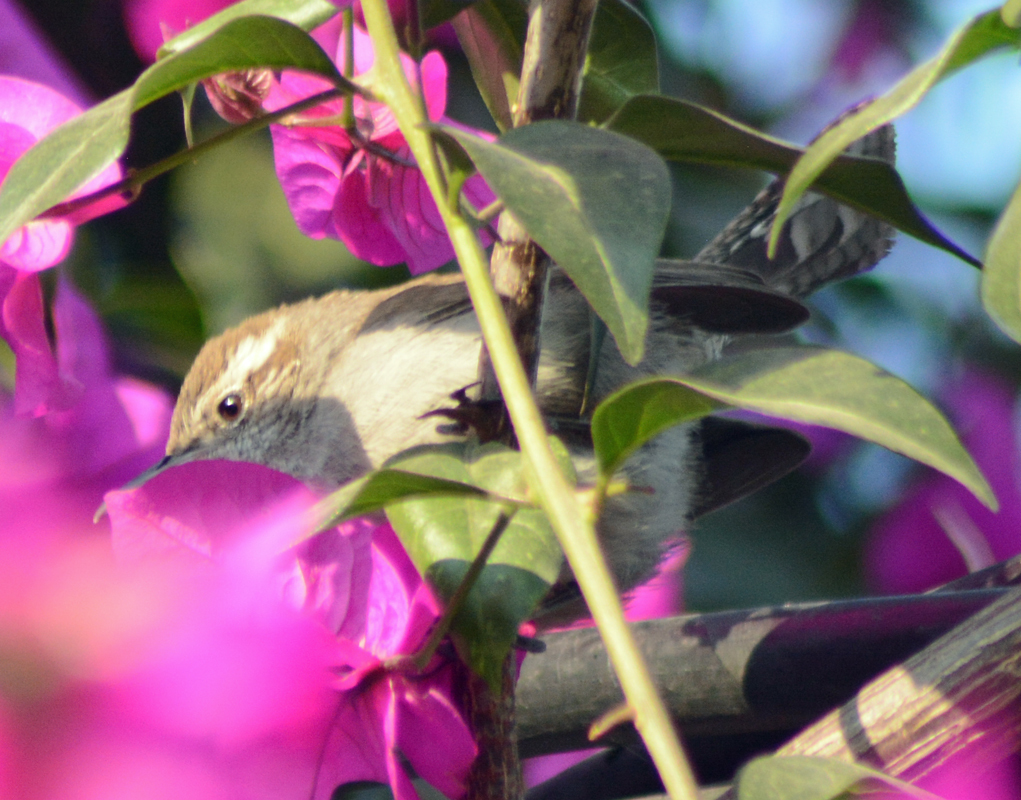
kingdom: Animalia
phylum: Chordata
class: Aves
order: Passeriformes
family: Troglodytidae
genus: Thryomanes
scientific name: Thryomanes bewickii
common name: Bewick's wren
